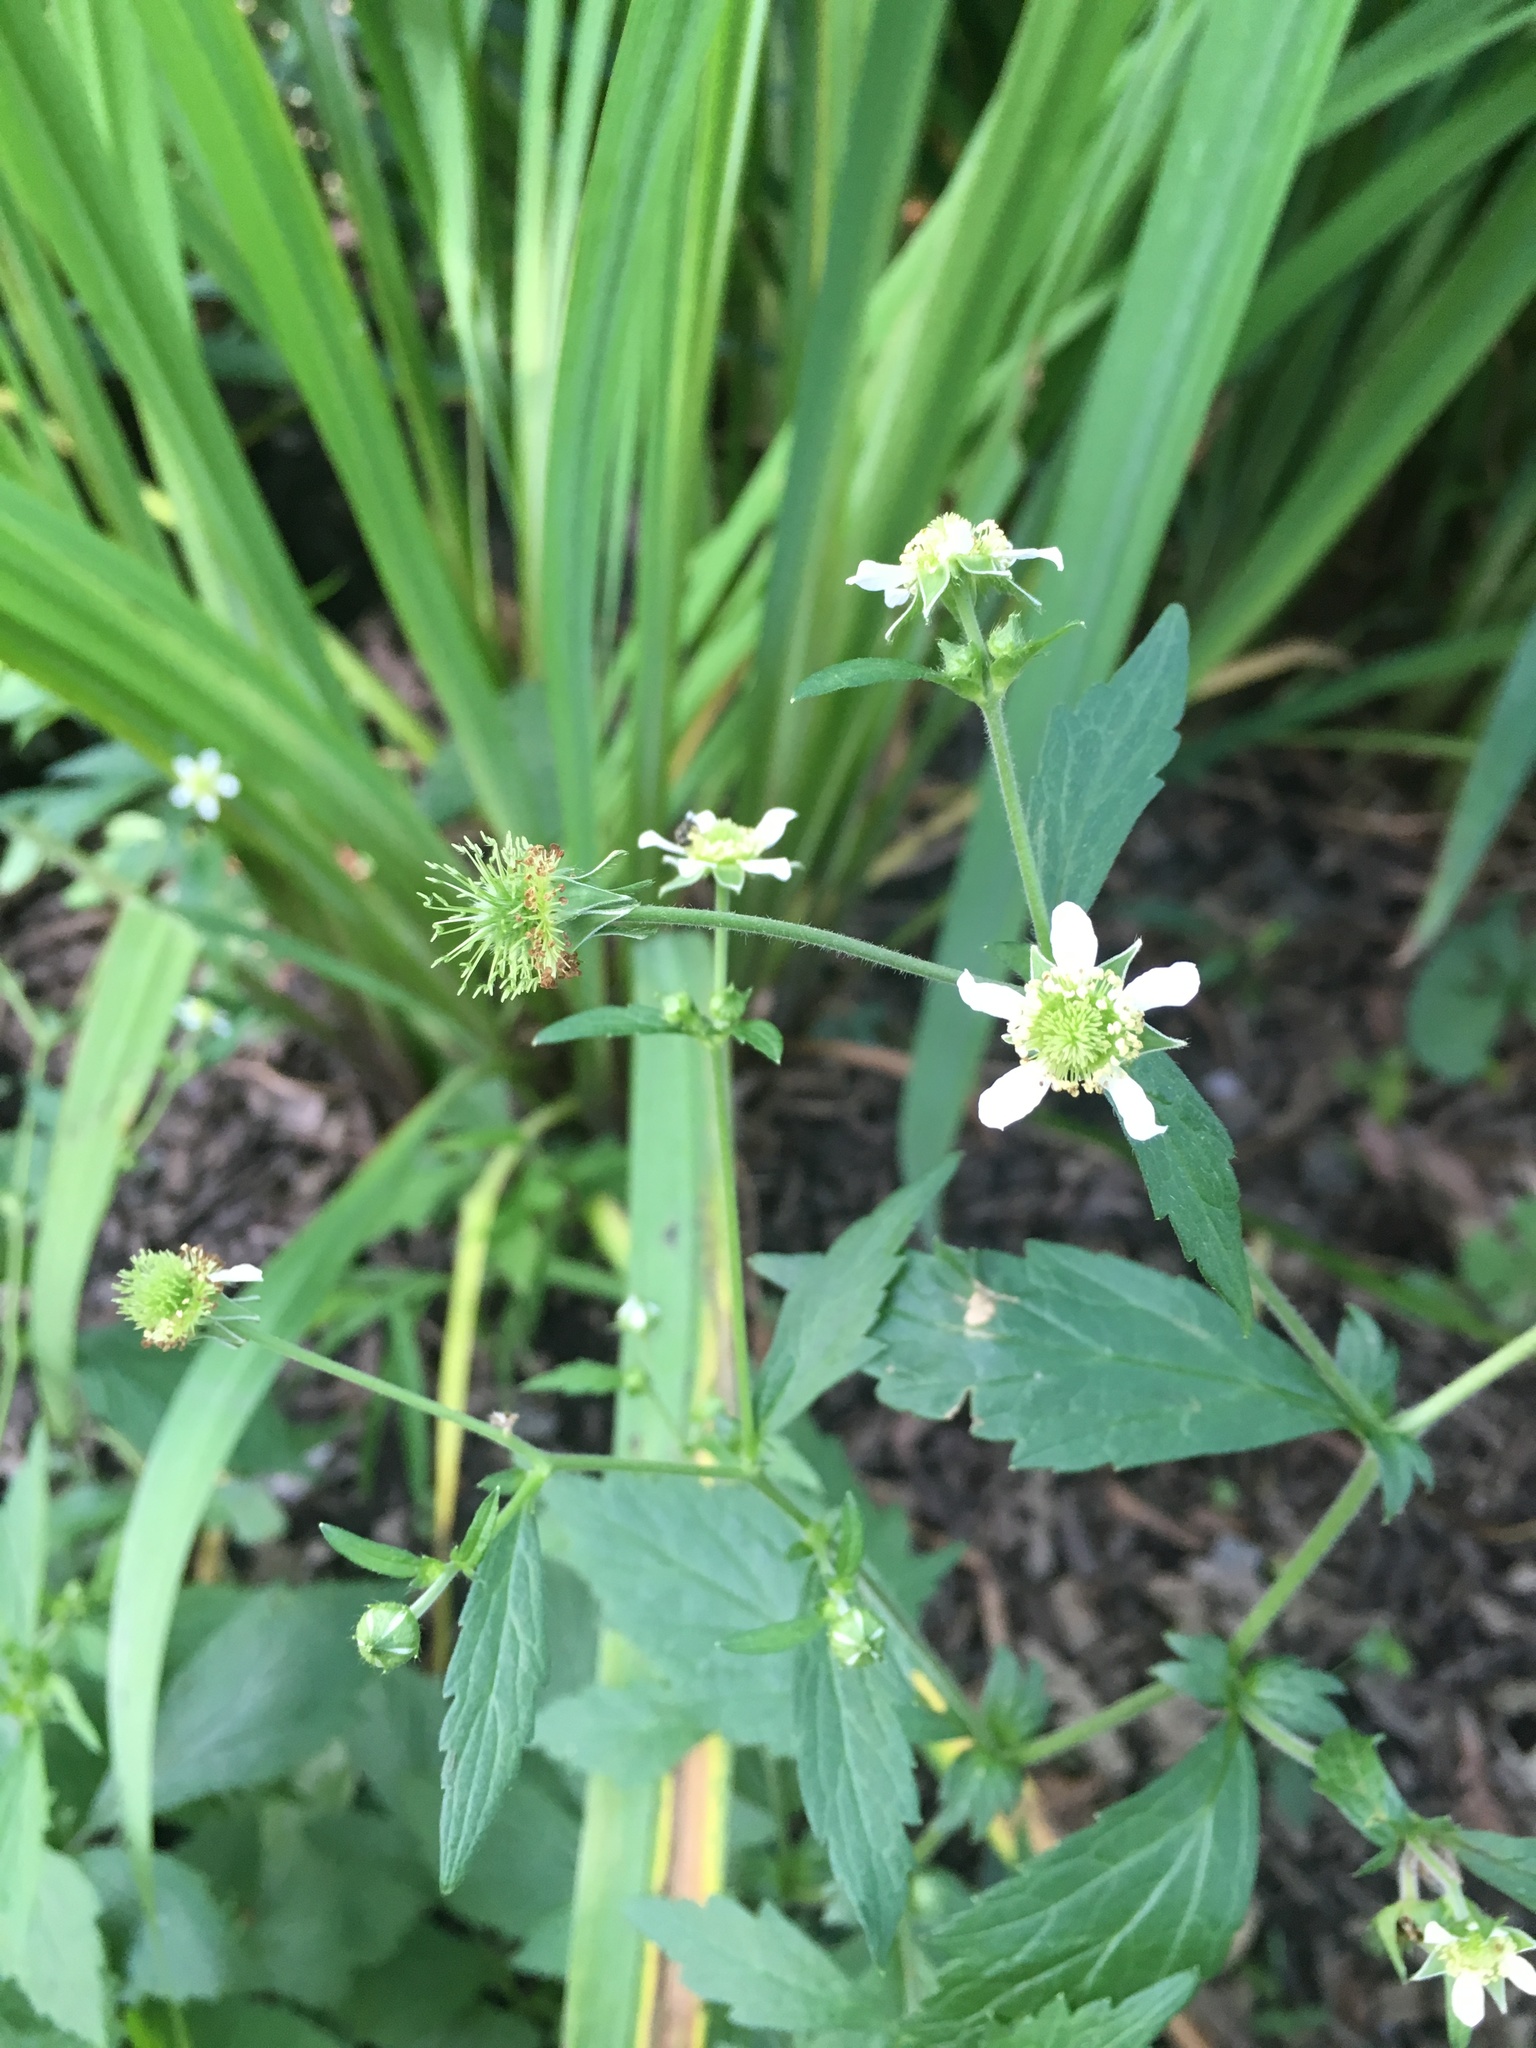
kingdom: Plantae
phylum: Tracheophyta
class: Magnoliopsida
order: Rosales
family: Rosaceae
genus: Geum
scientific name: Geum canadense
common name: White avens
